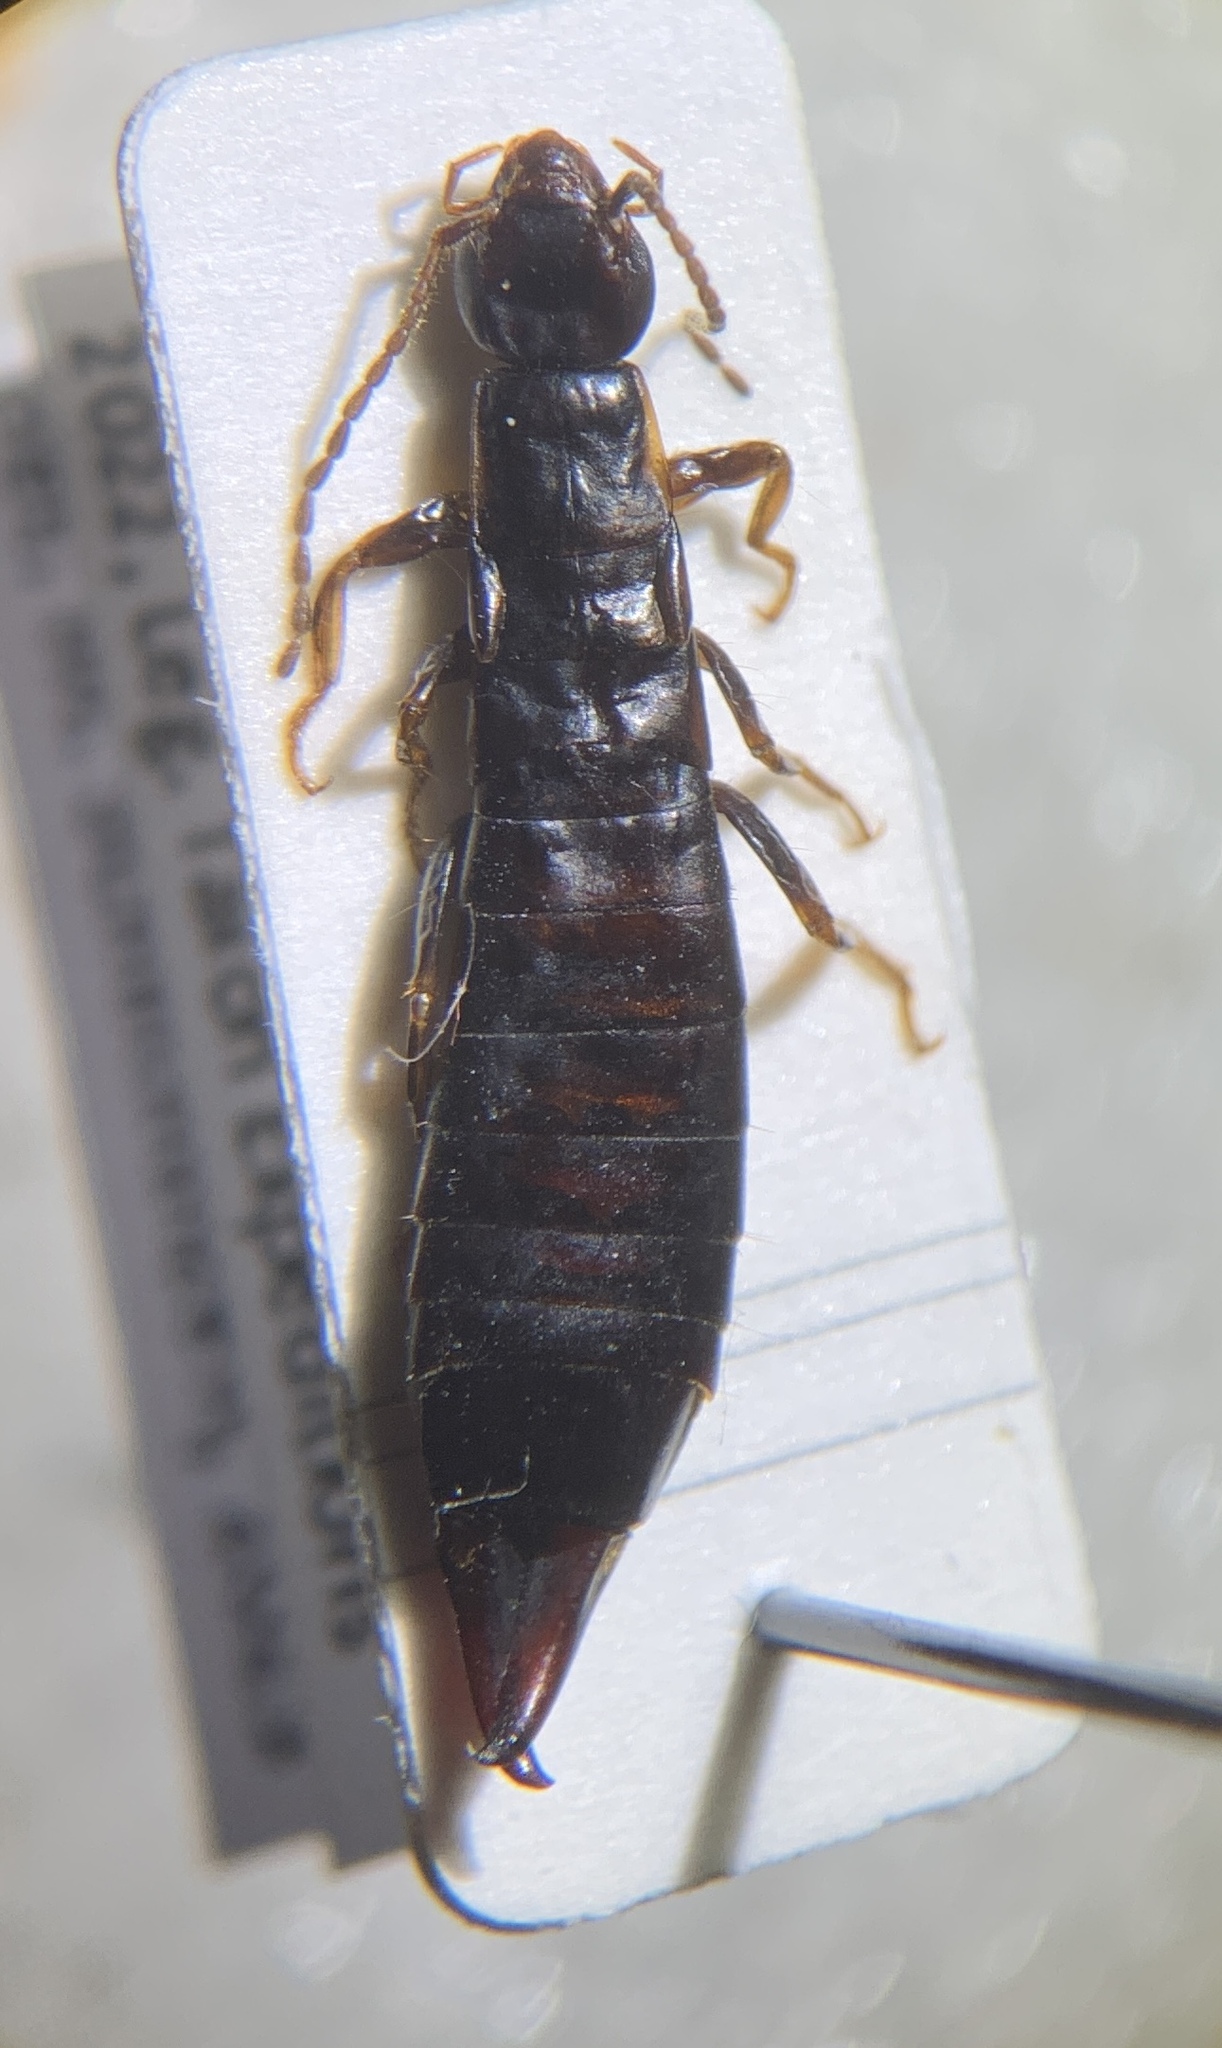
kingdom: Animalia
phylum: Arthropoda
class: Insecta
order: Dermaptera
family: Anisolabididae
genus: Euborellia
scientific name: Euborellia moesta
